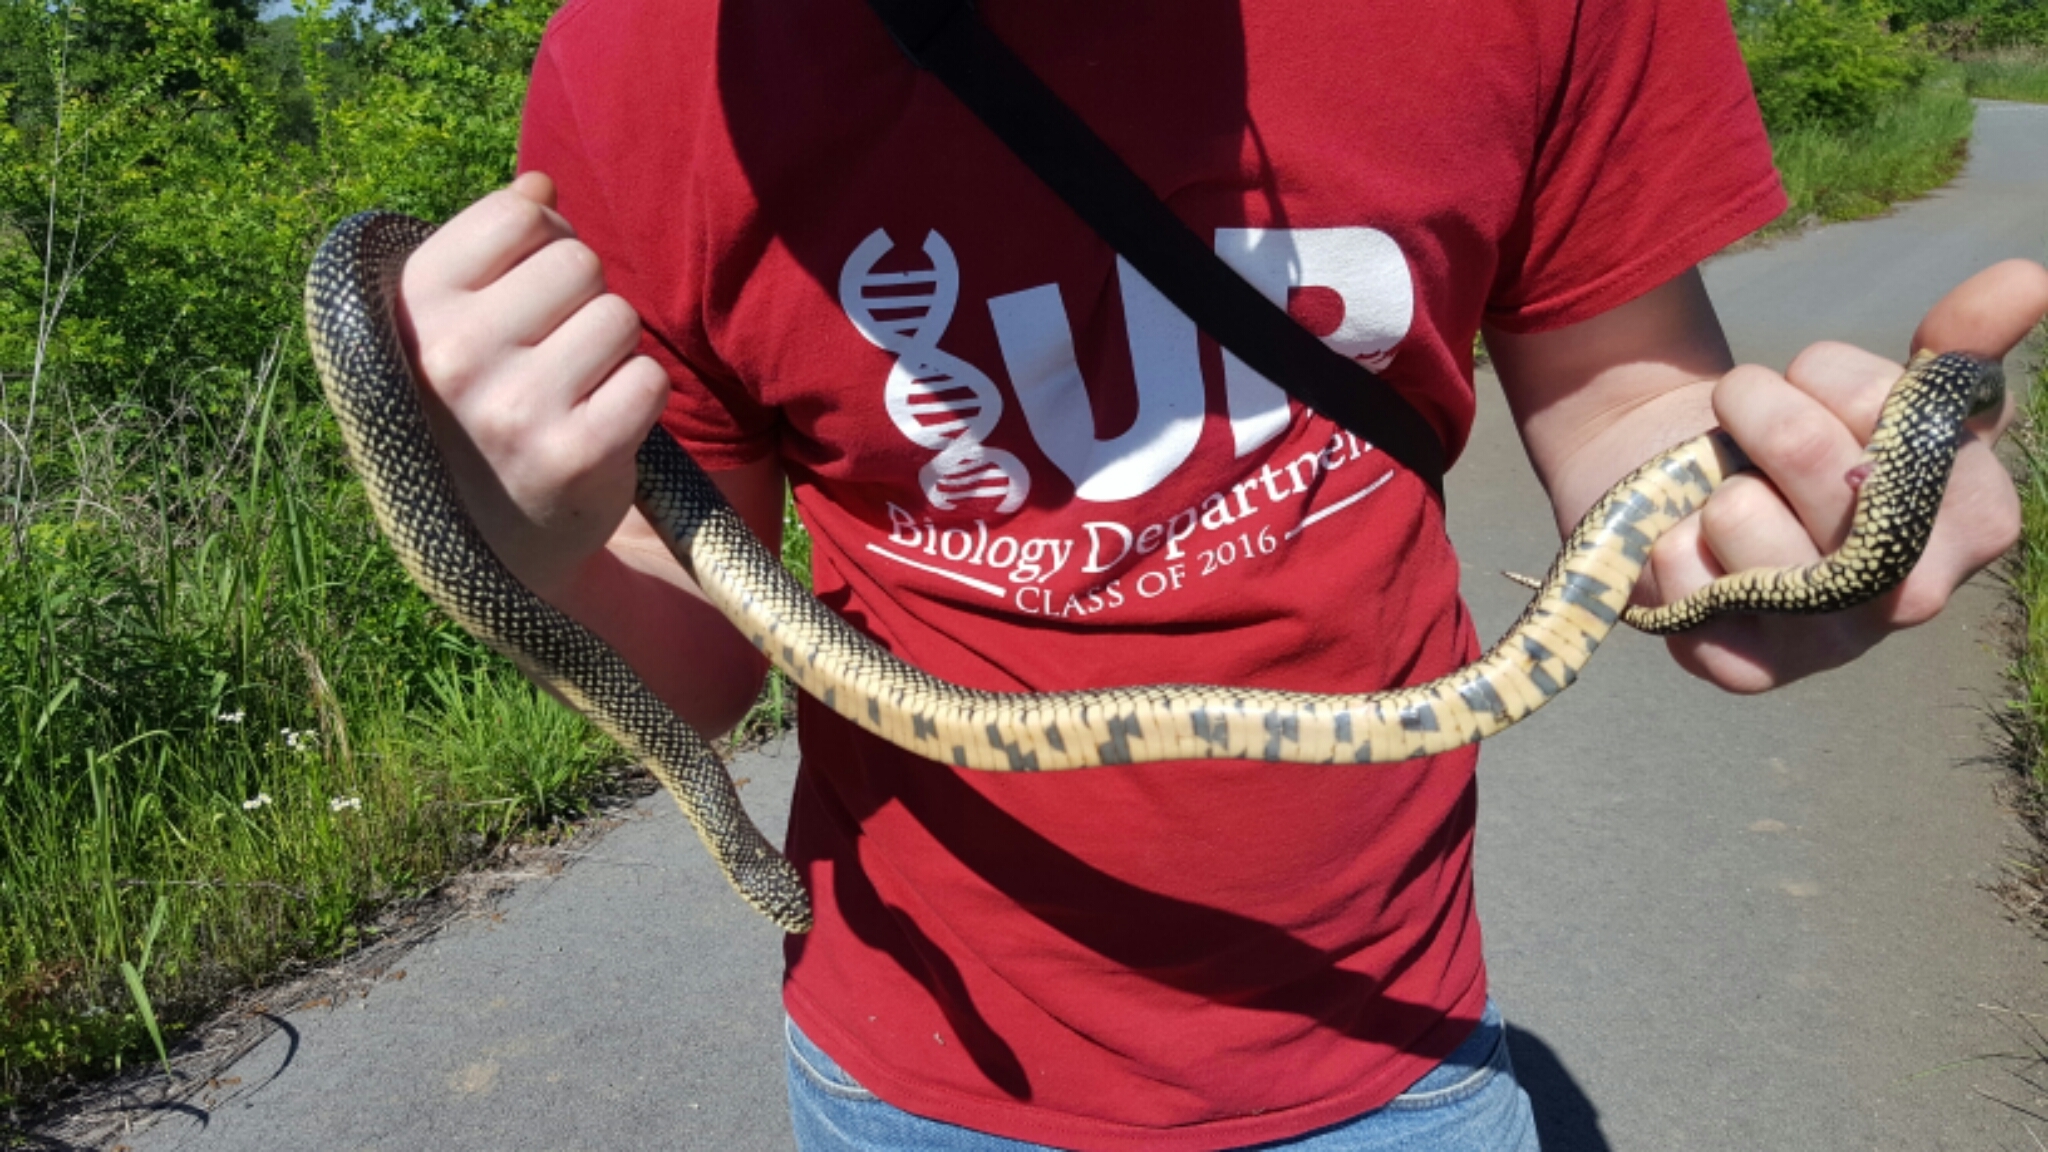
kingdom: Animalia
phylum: Chordata
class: Squamata
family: Colubridae
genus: Lampropeltis
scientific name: Lampropeltis holbrooki
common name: Speckled kingsnake
